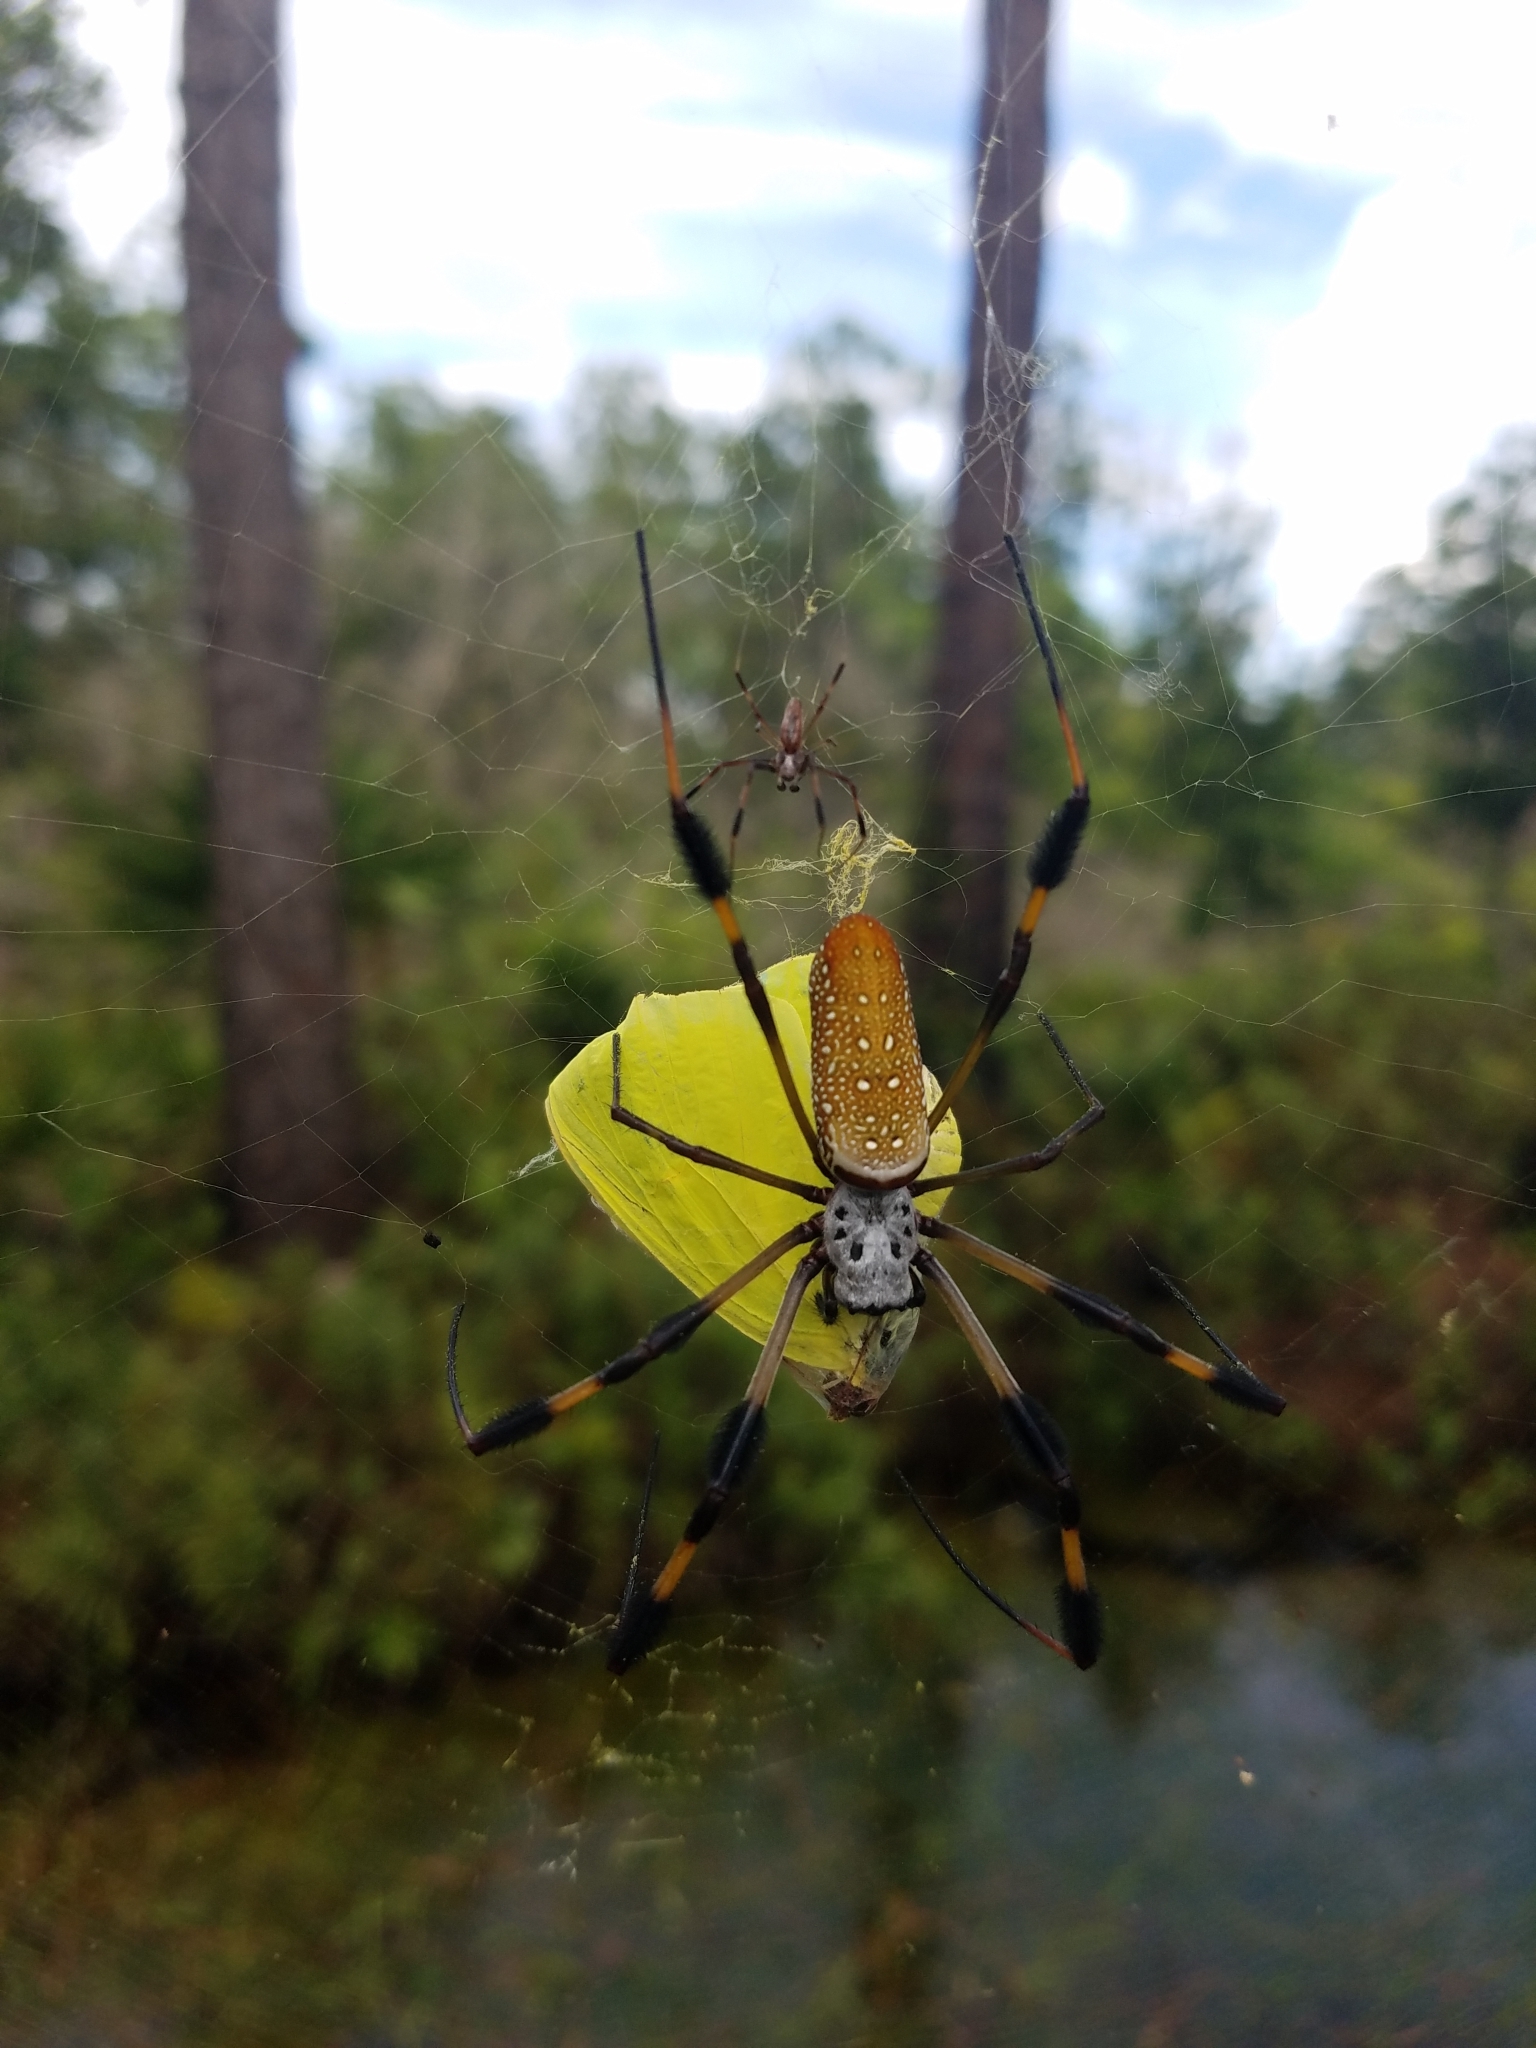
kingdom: Animalia
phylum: Arthropoda
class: Arachnida
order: Araneae
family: Araneidae
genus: Trichonephila
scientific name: Trichonephila clavipes
